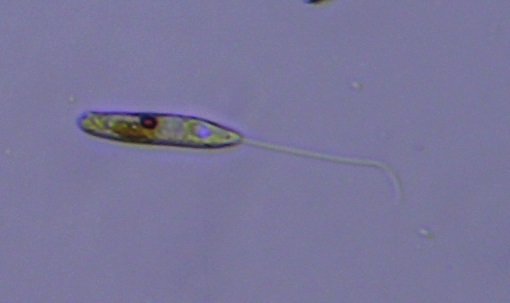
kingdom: Protozoa
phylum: Euglenozoa
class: Euglenoidea
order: Peranemida
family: Peranemidae
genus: Peranema
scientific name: Peranema Pseudoperanema trichophorum
